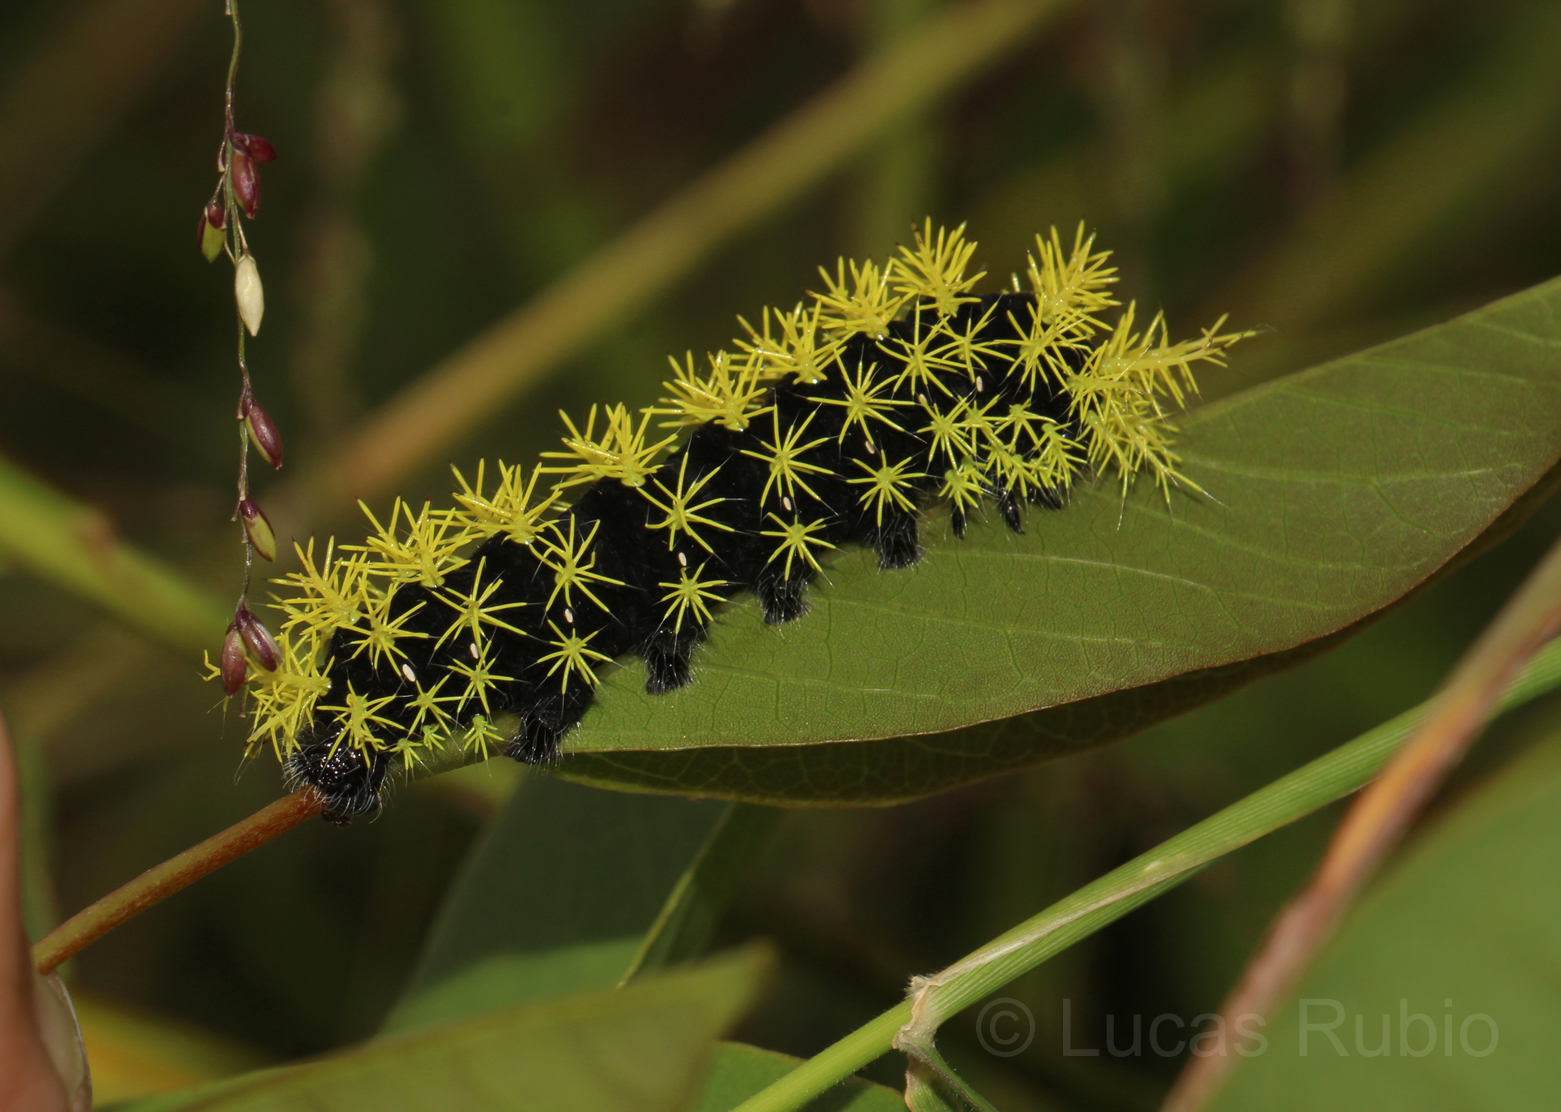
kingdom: Animalia
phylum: Arthropoda
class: Insecta
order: Lepidoptera
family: Saturniidae
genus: Leucanella
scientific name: Leucanella viridescens
